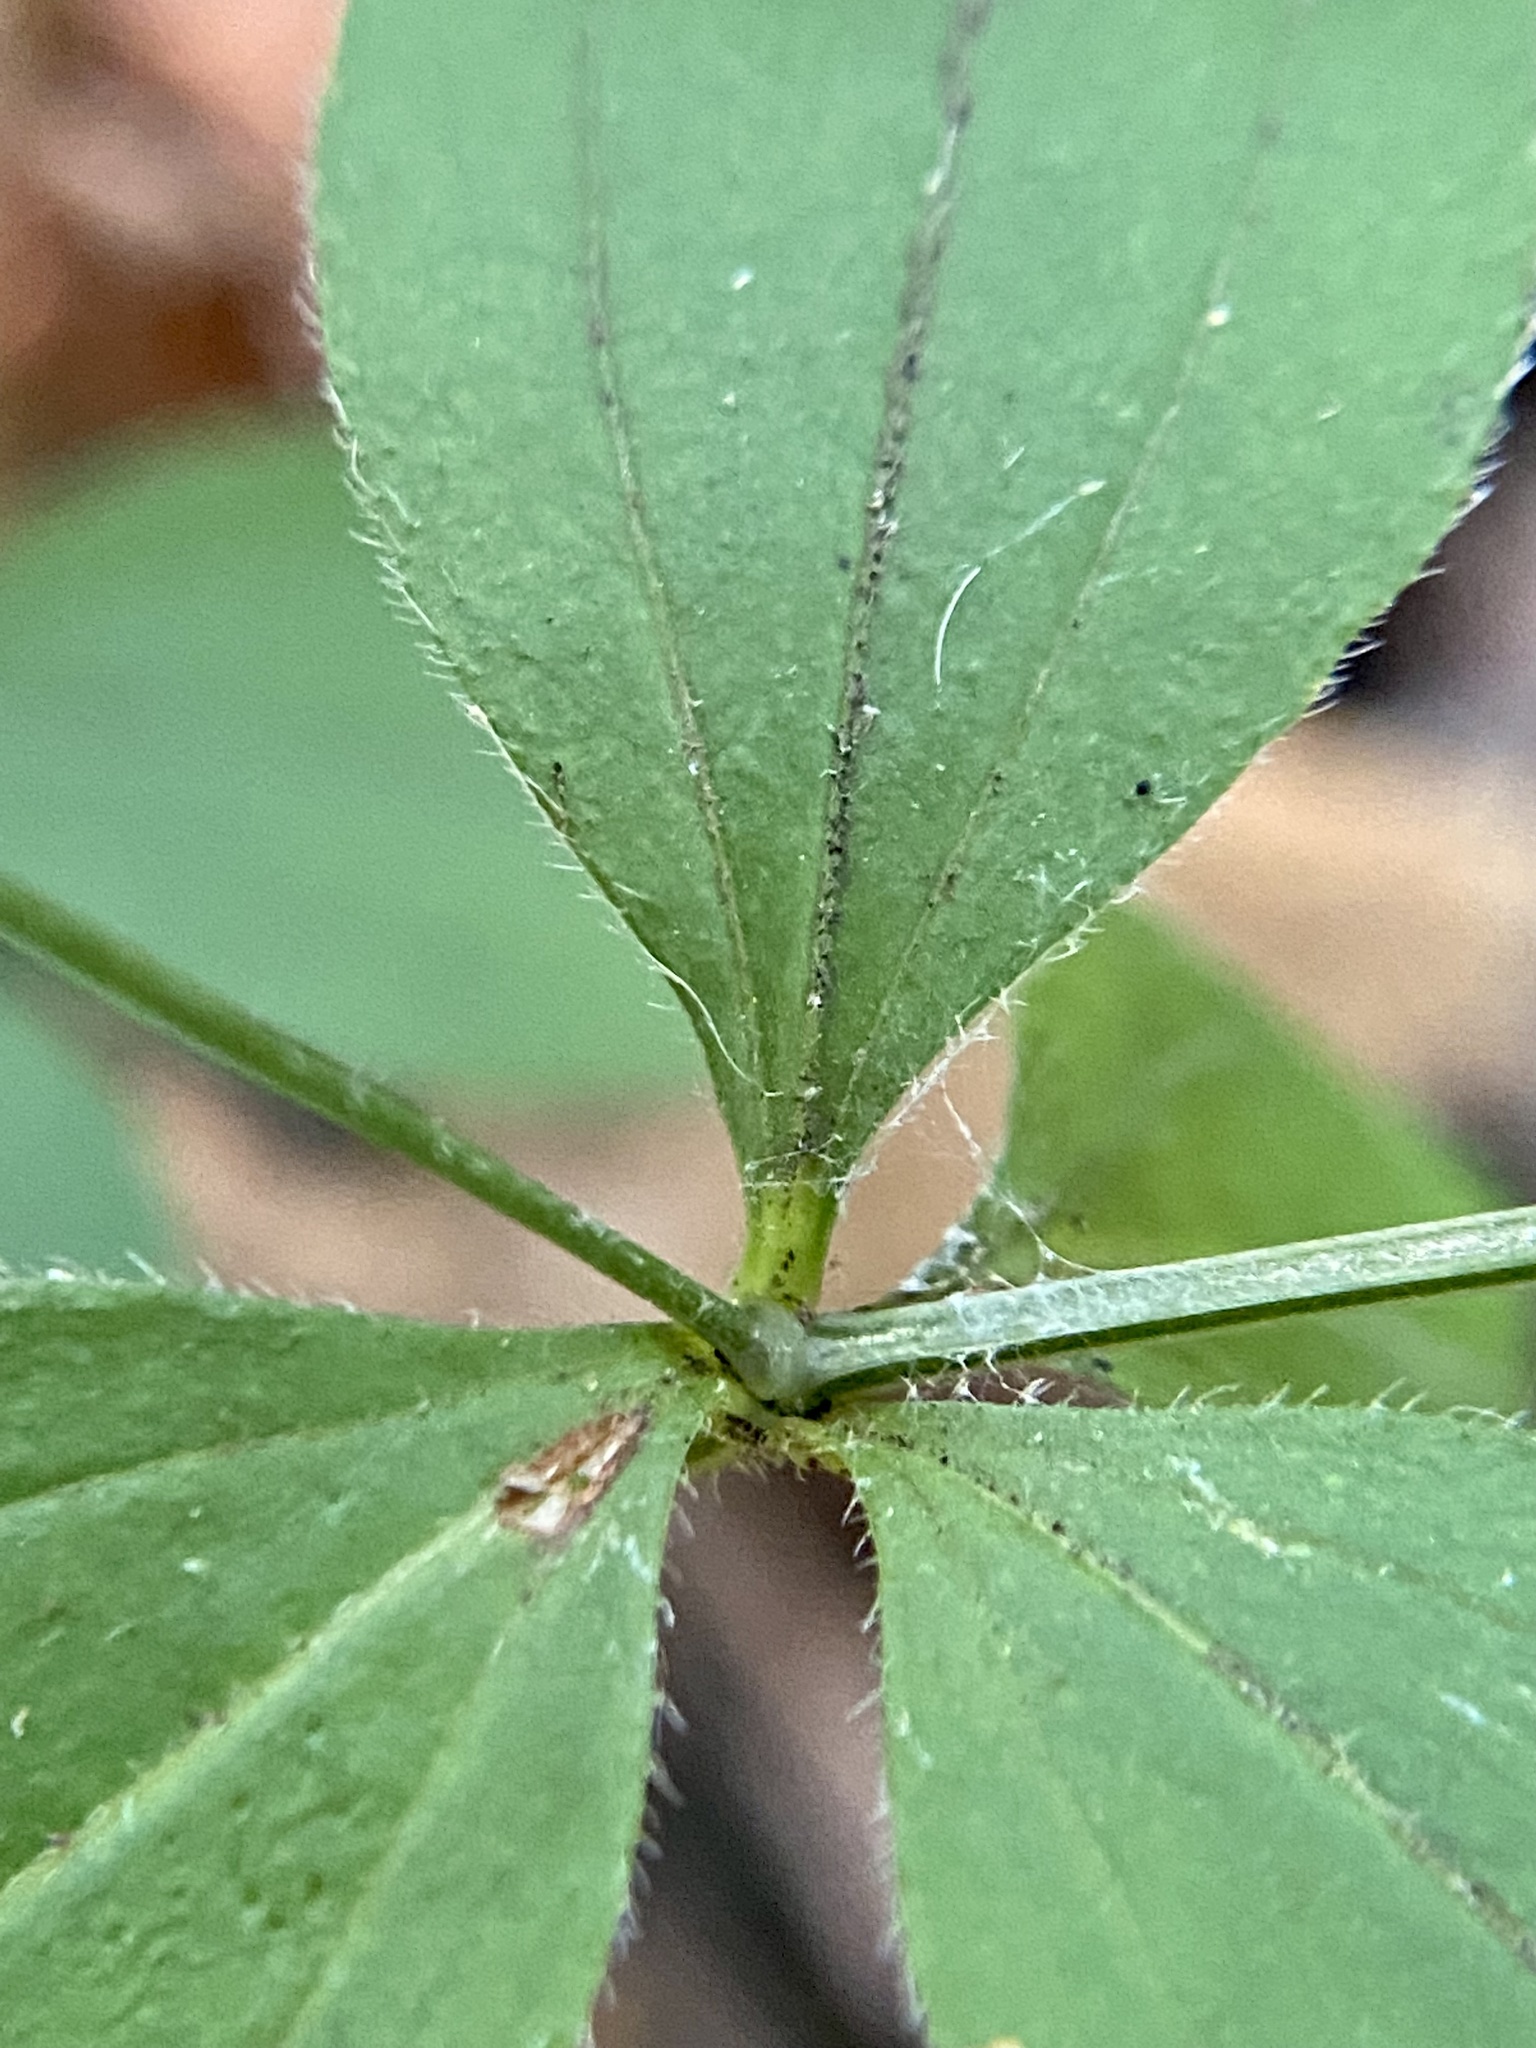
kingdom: Plantae
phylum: Tracheophyta
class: Magnoliopsida
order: Gentianales
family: Rubiaceae
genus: Galium
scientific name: Galium circaezans
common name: Forest bedstraw
